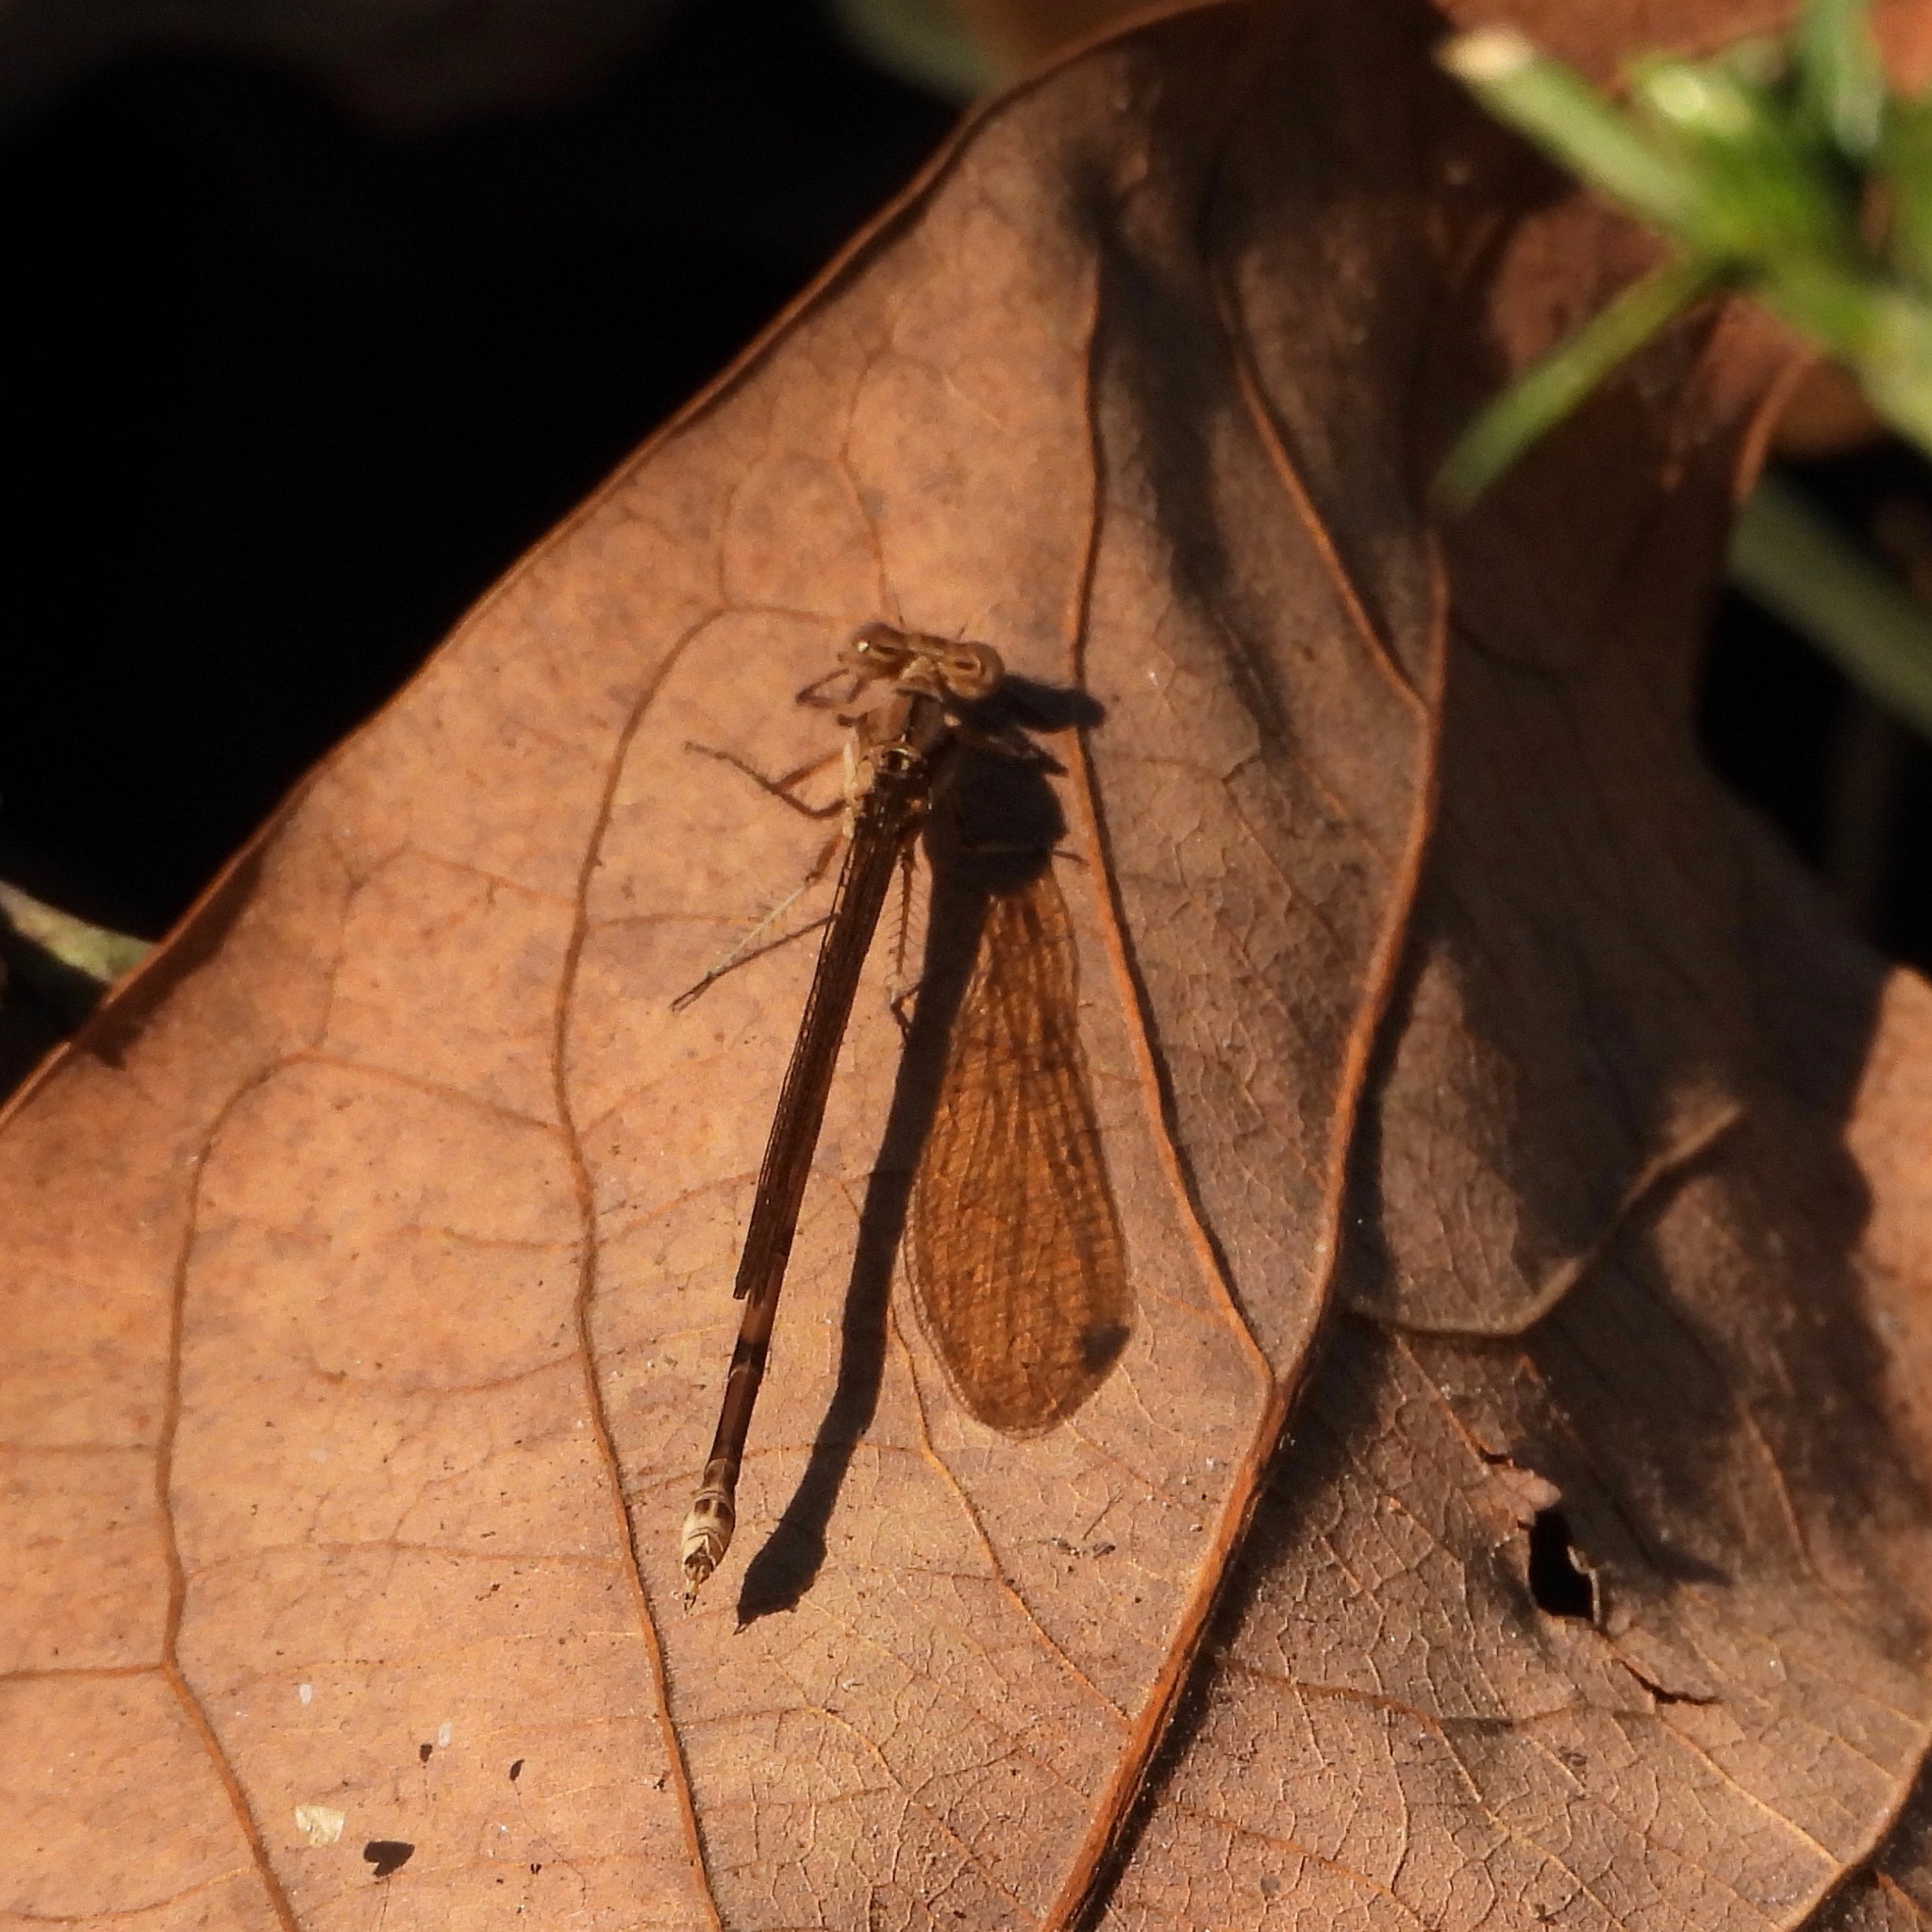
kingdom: Animalia
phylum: Arthropoda
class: Insecta
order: Odonata
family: Coenagrionidae
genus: Argia
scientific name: Argia anceps
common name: Cerulean dancer
